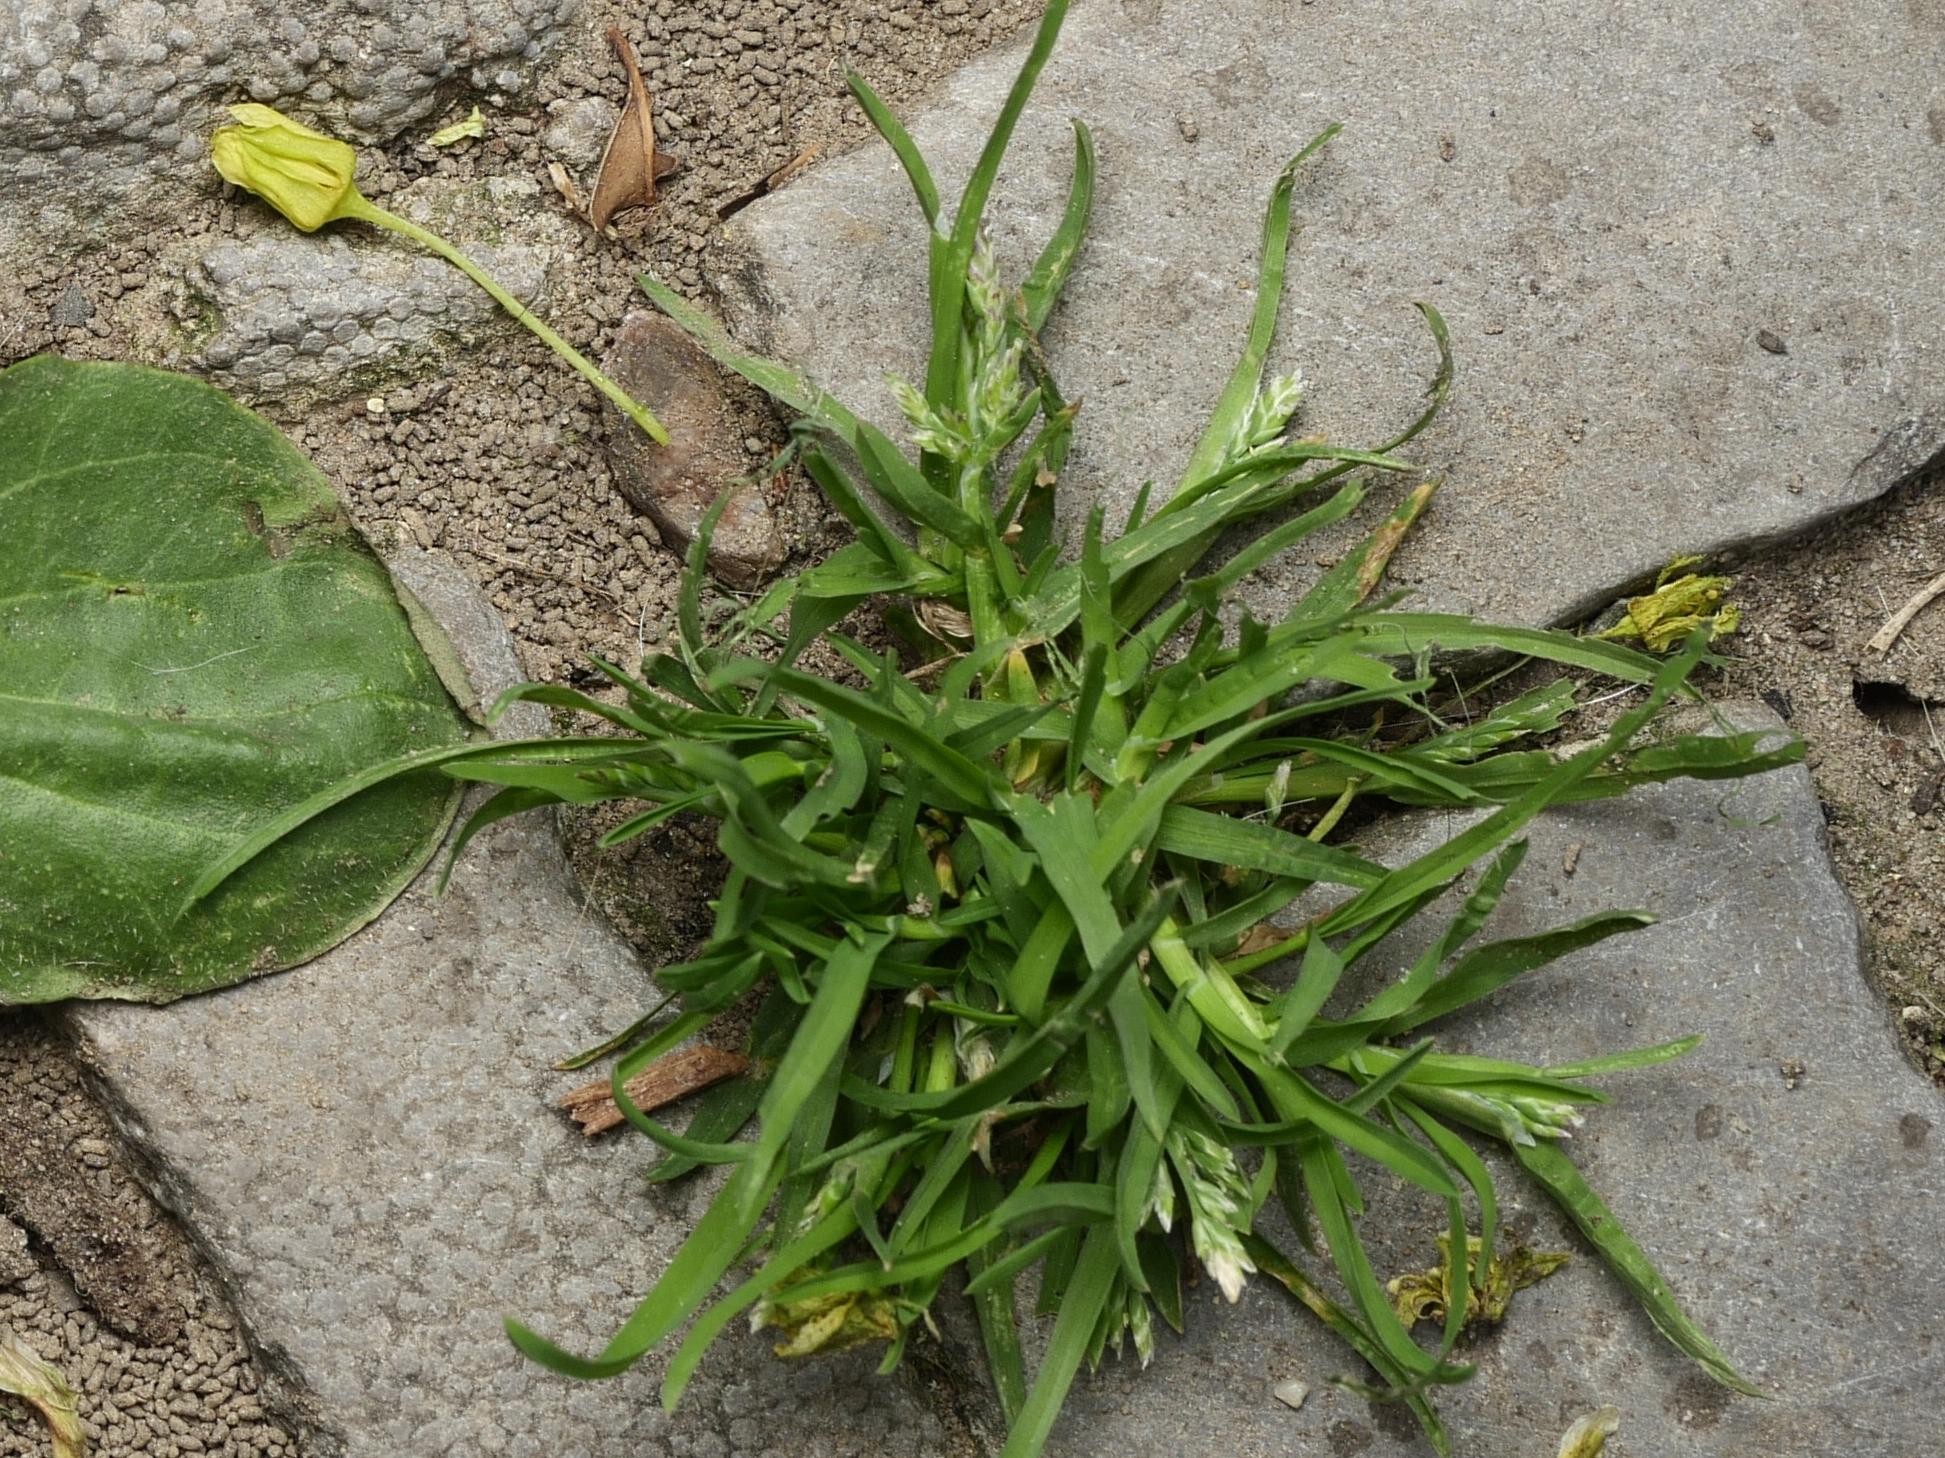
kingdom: Plantae
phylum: Tracheophyta
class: Liliopsida
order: Poales
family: Poaceae
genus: Poa
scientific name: Poa annua
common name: Annual bluegrass
